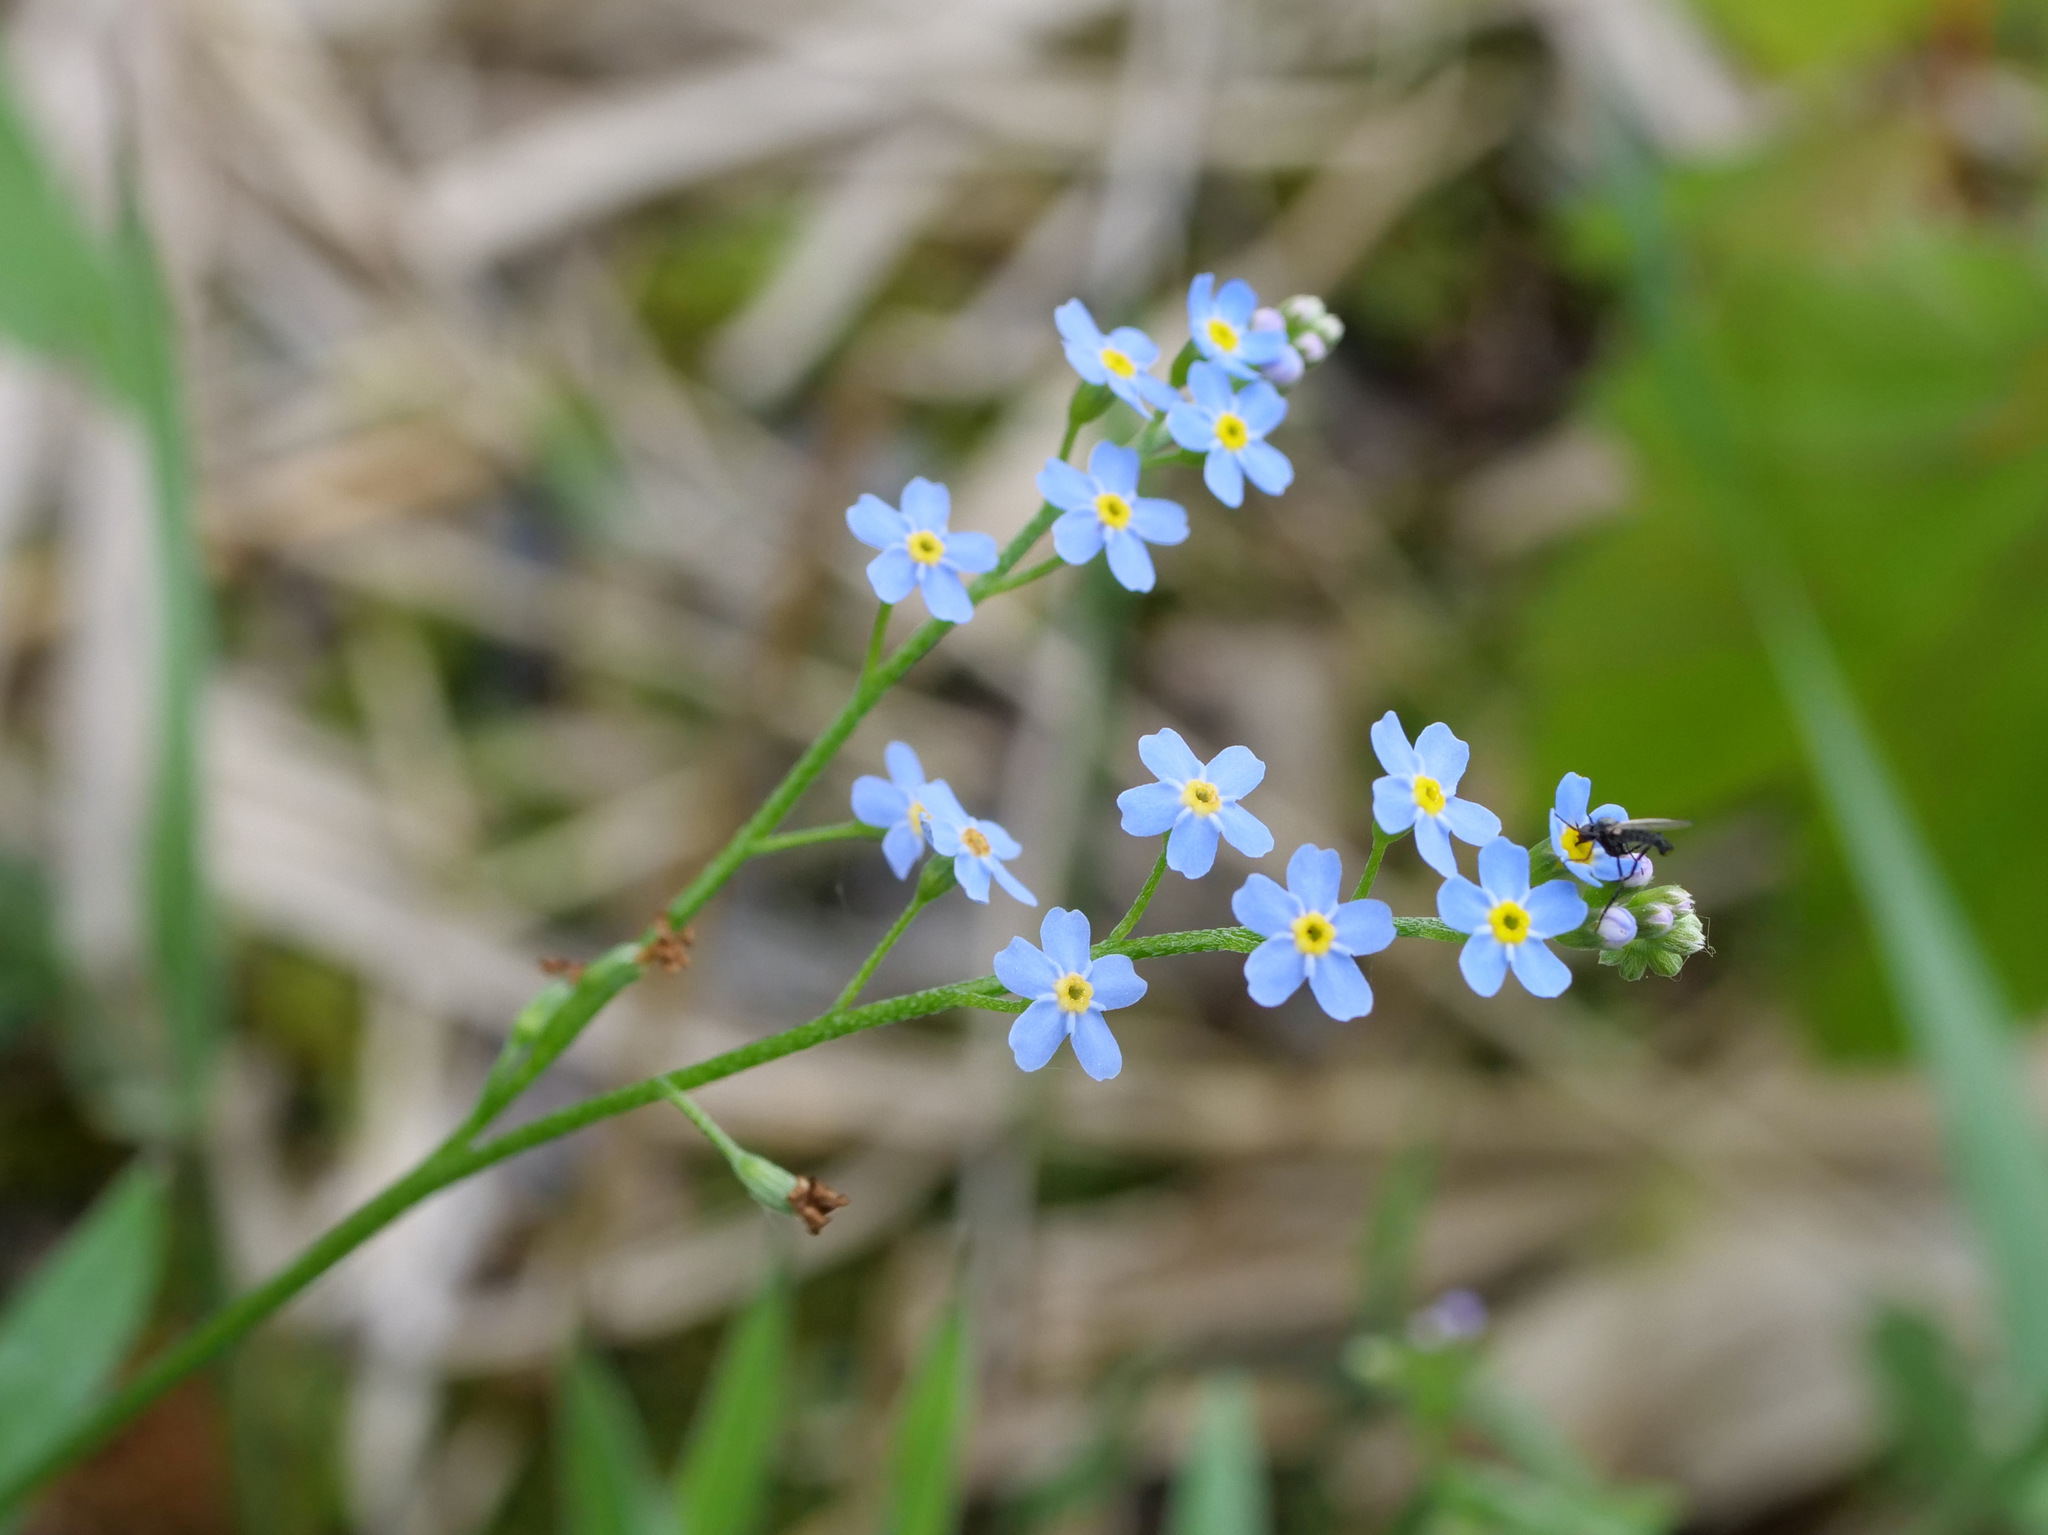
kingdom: Plantae
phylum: Tracheophyta
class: Magnoliopsida
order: Boraginales
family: Boraginaceae
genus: Myosotis
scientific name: Myosotis scorpioides
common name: Water forget-me-not
